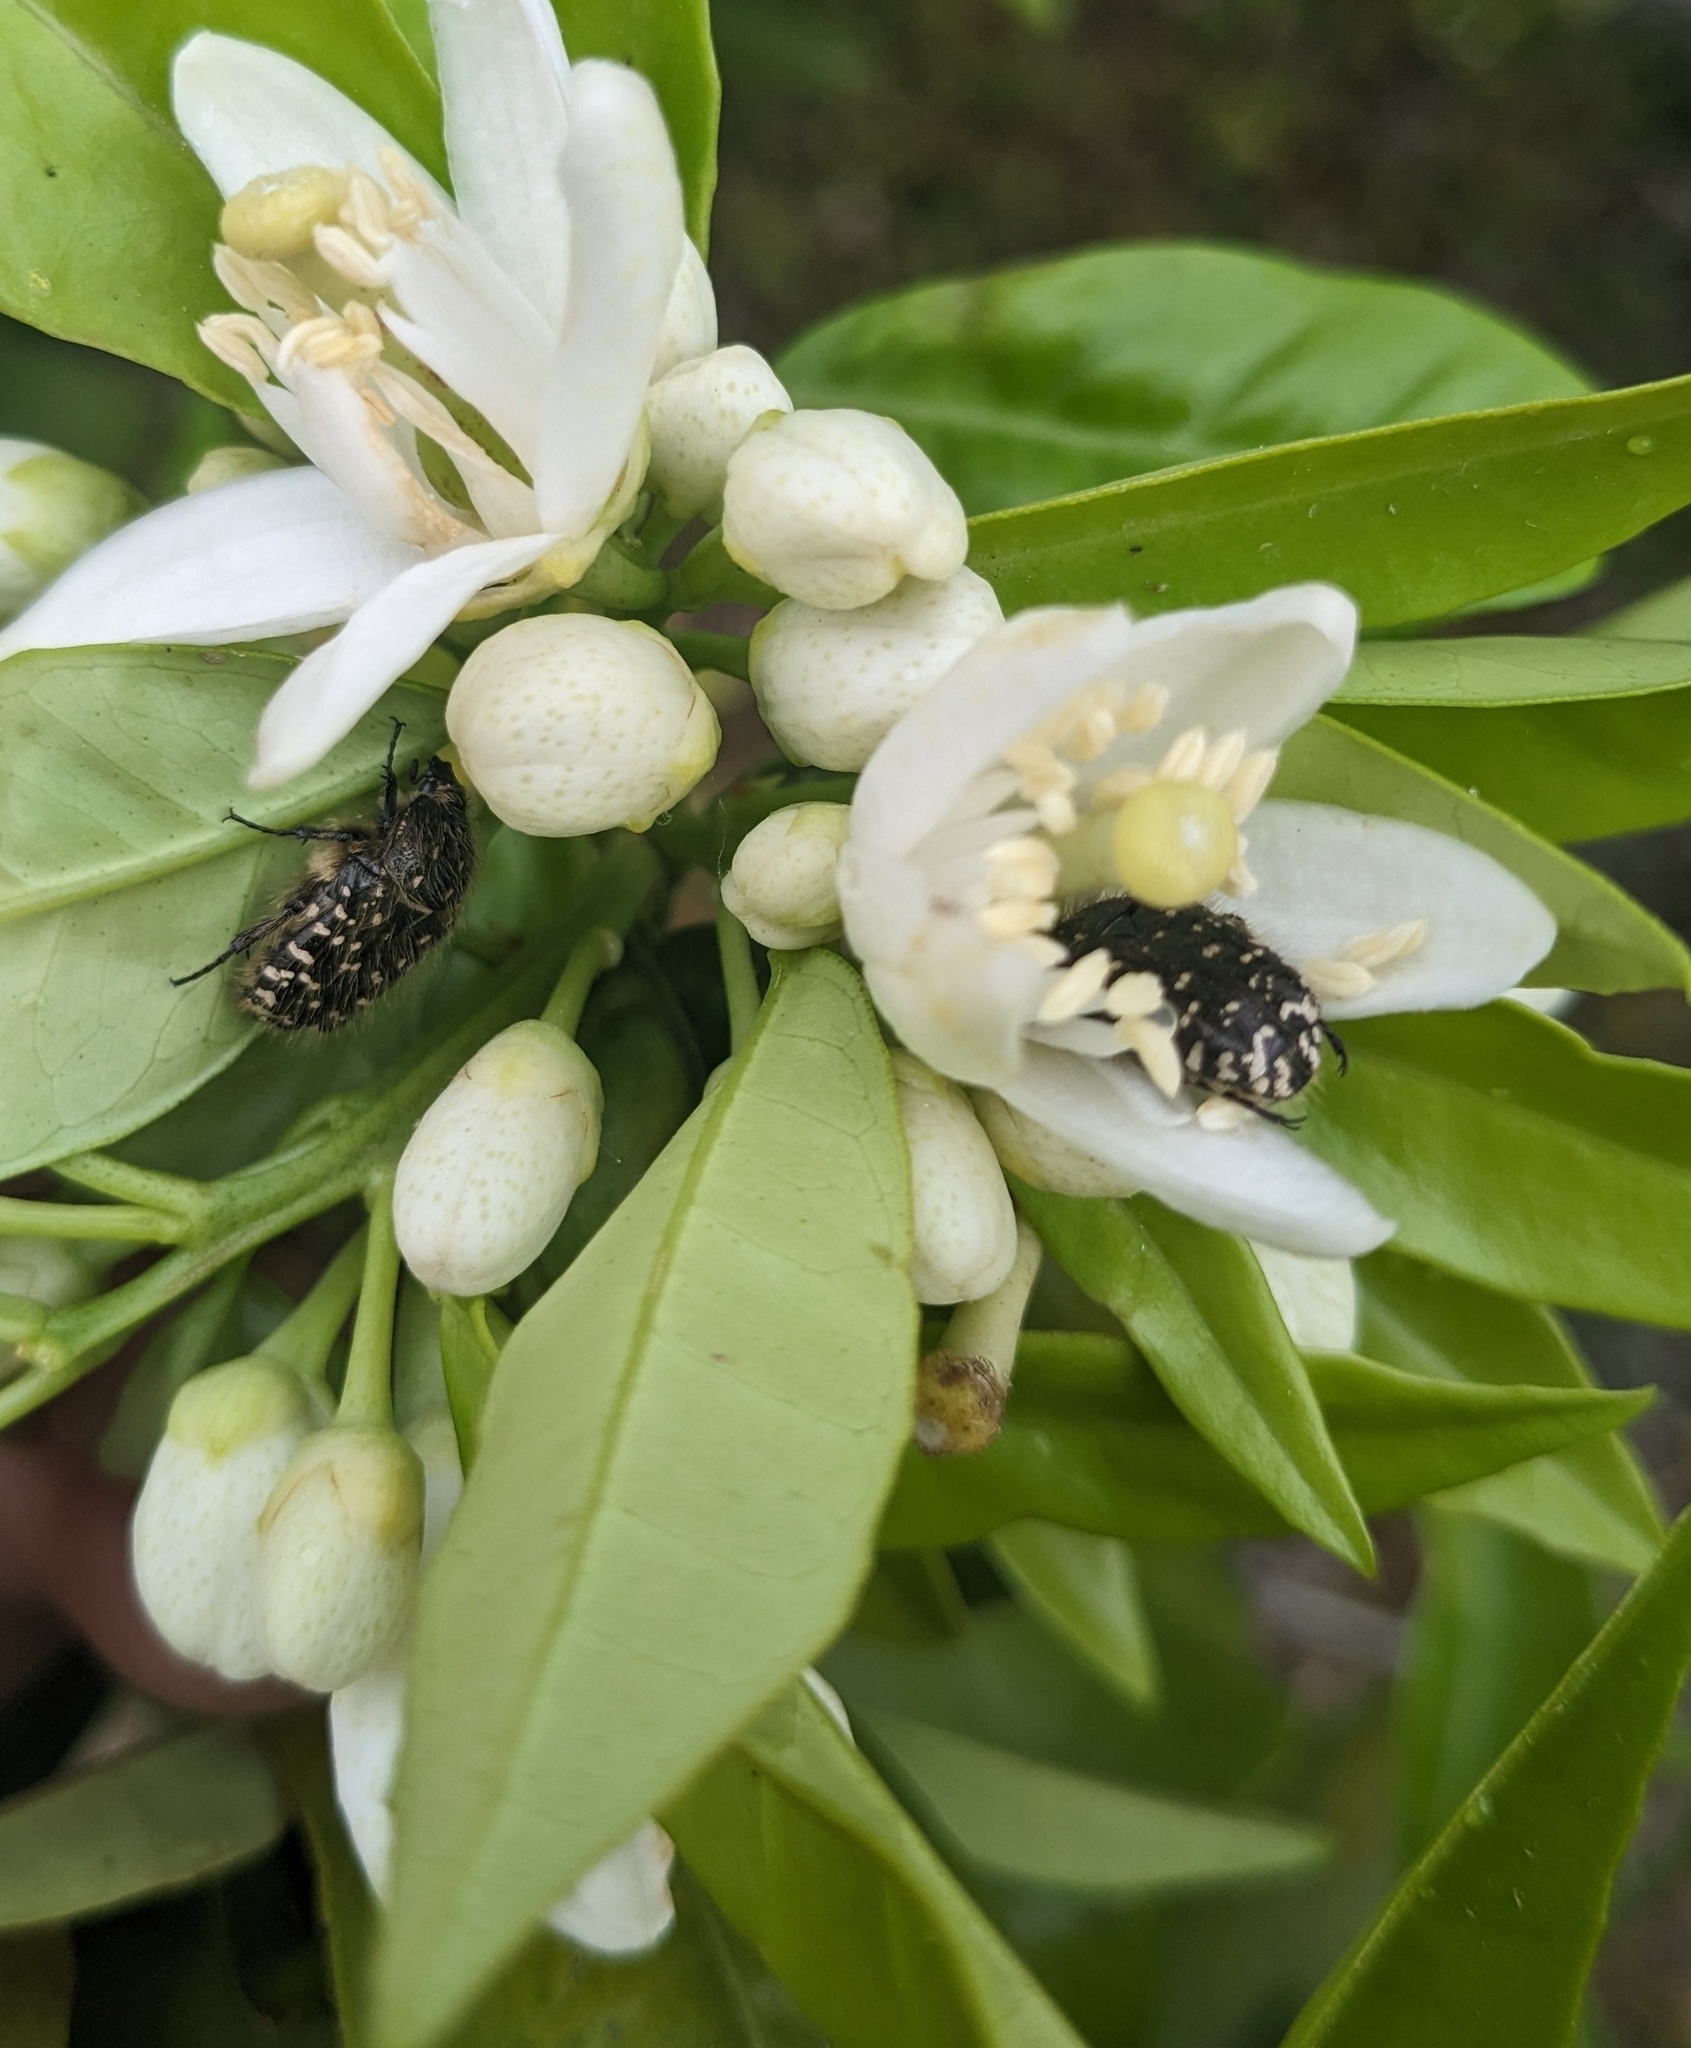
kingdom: Animalia
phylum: Arthropoda
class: Insecta
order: Coleoptera
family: Scarabaeidae
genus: Oxythyrea
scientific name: Oxythyrea funesta
